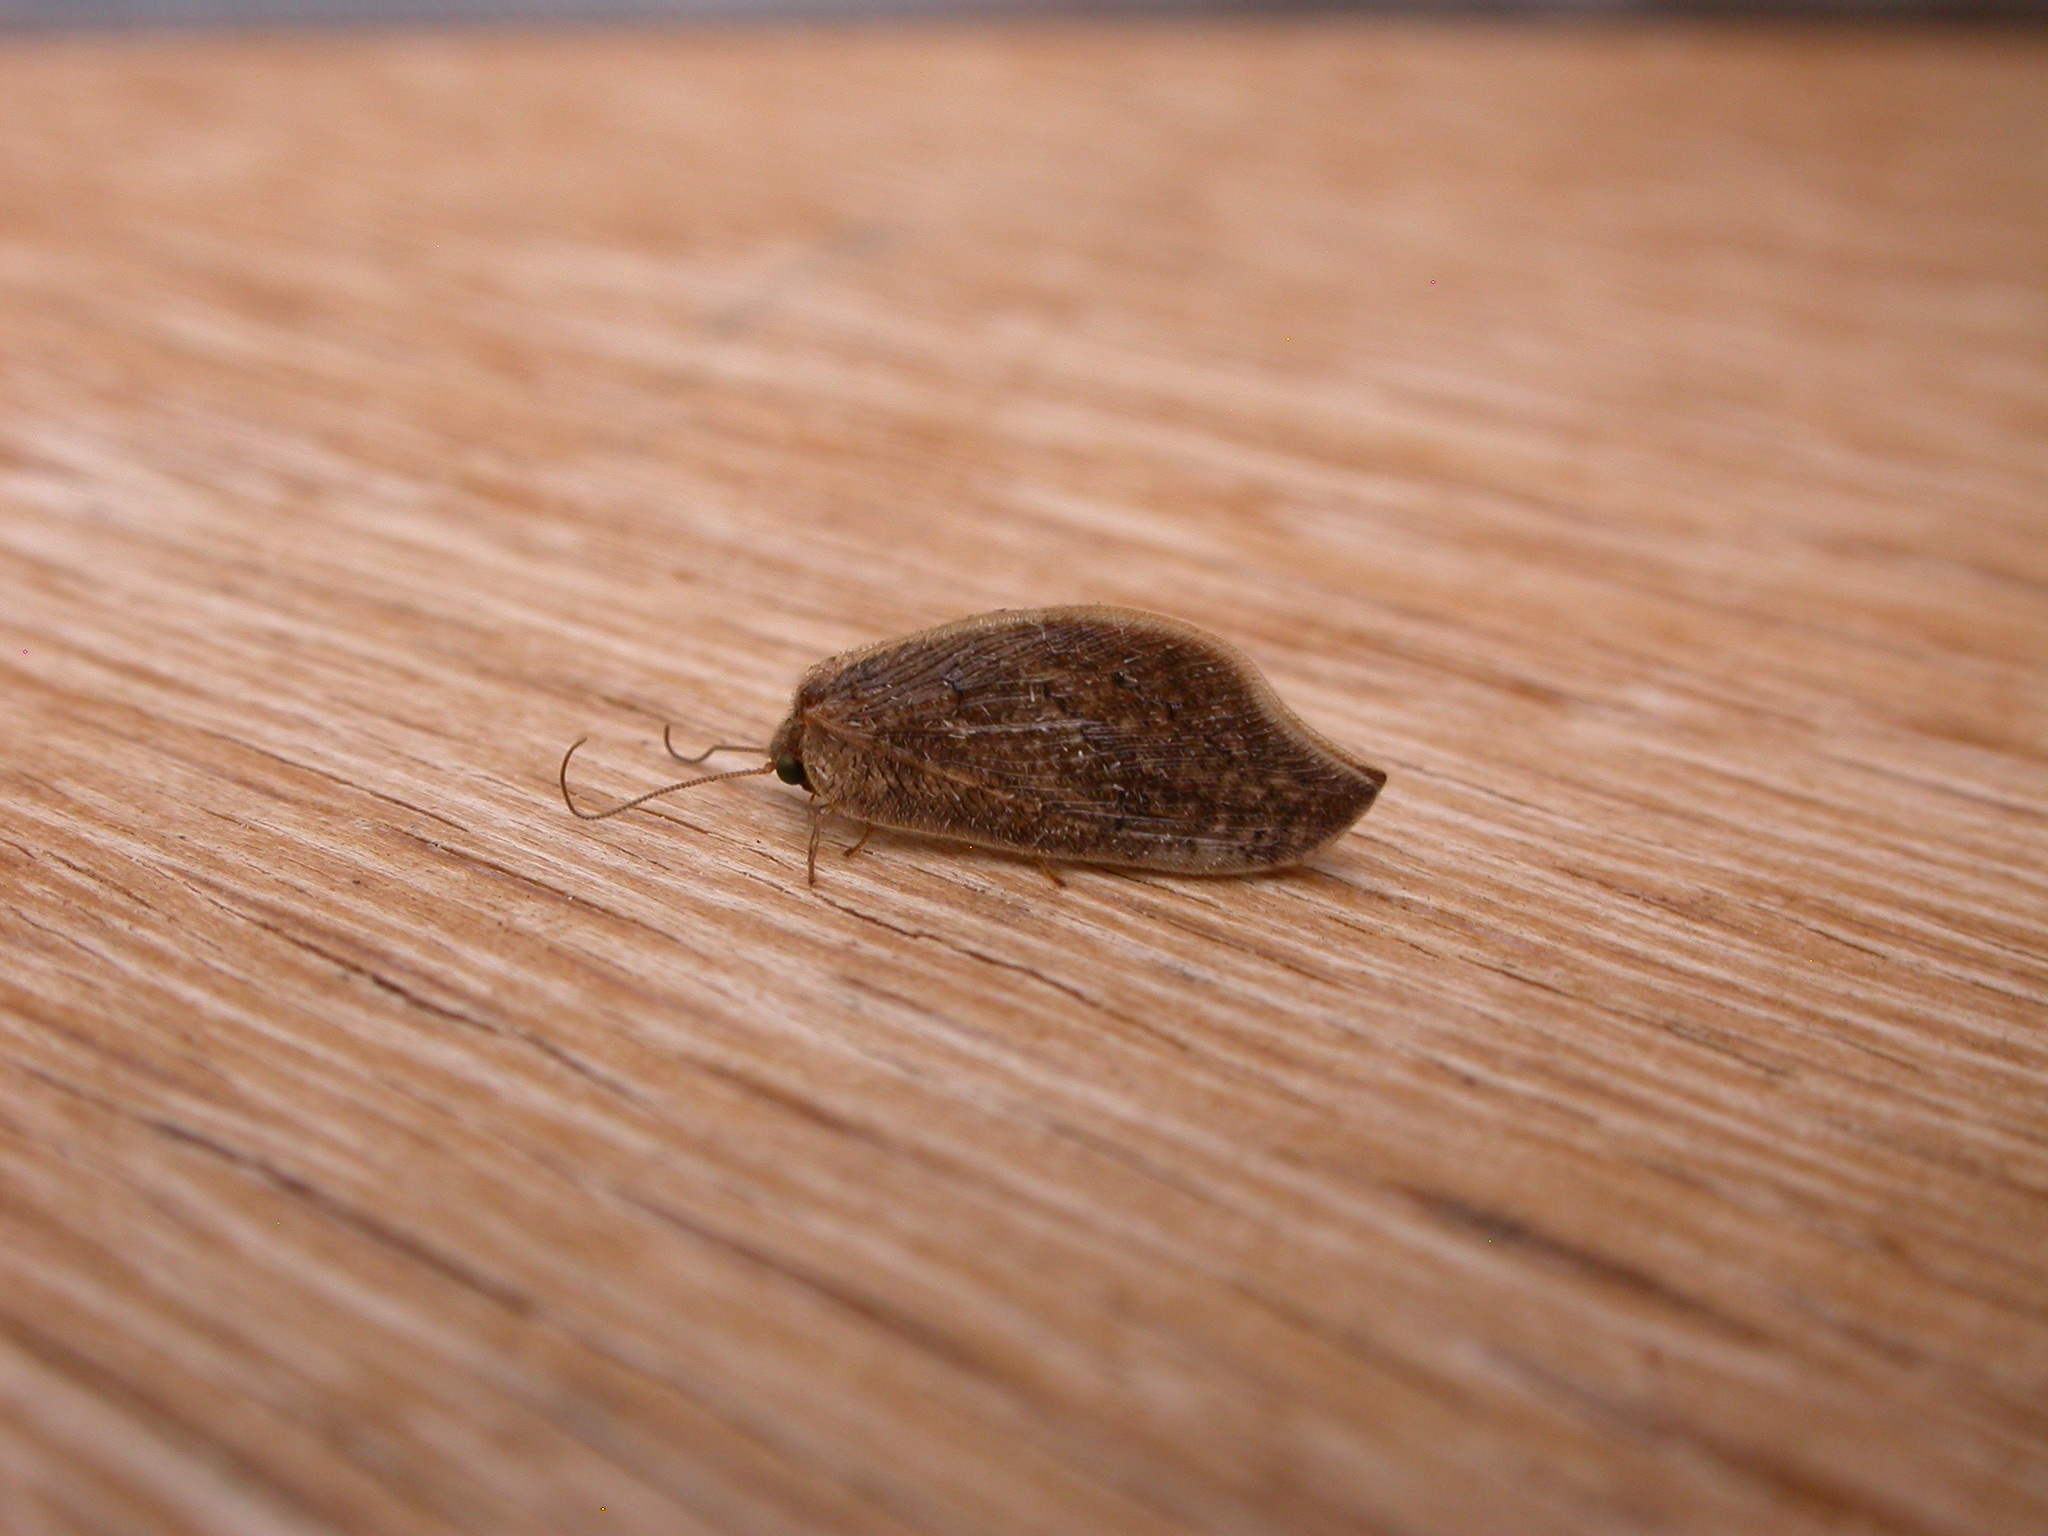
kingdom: Animalia
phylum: Arthropoda
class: Insecta
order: Neuroptera
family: Hemerobiidae
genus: Drepanacra
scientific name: Drepanacra binocula
